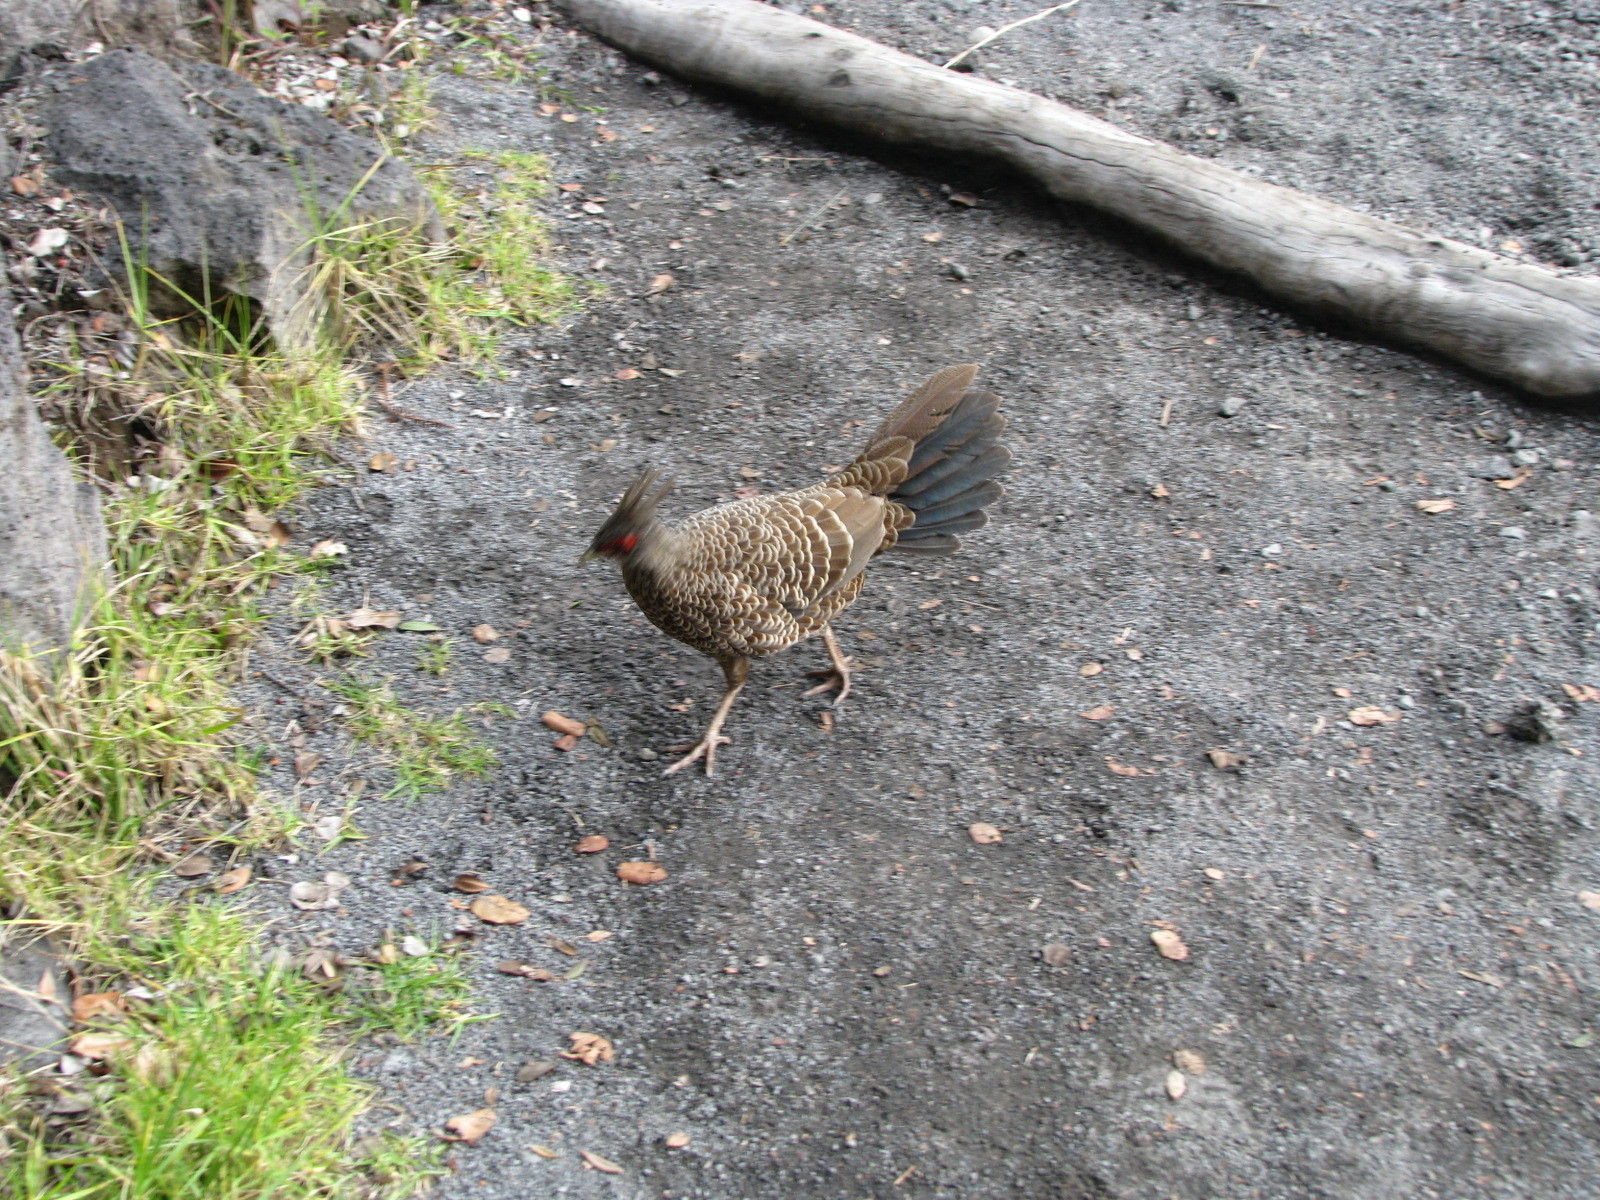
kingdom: Animalia
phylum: Chordata
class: Aves
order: Galliformes
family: Phasianidae
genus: Lophura
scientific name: Lophura leucomelanos
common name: Kalij pheasant
